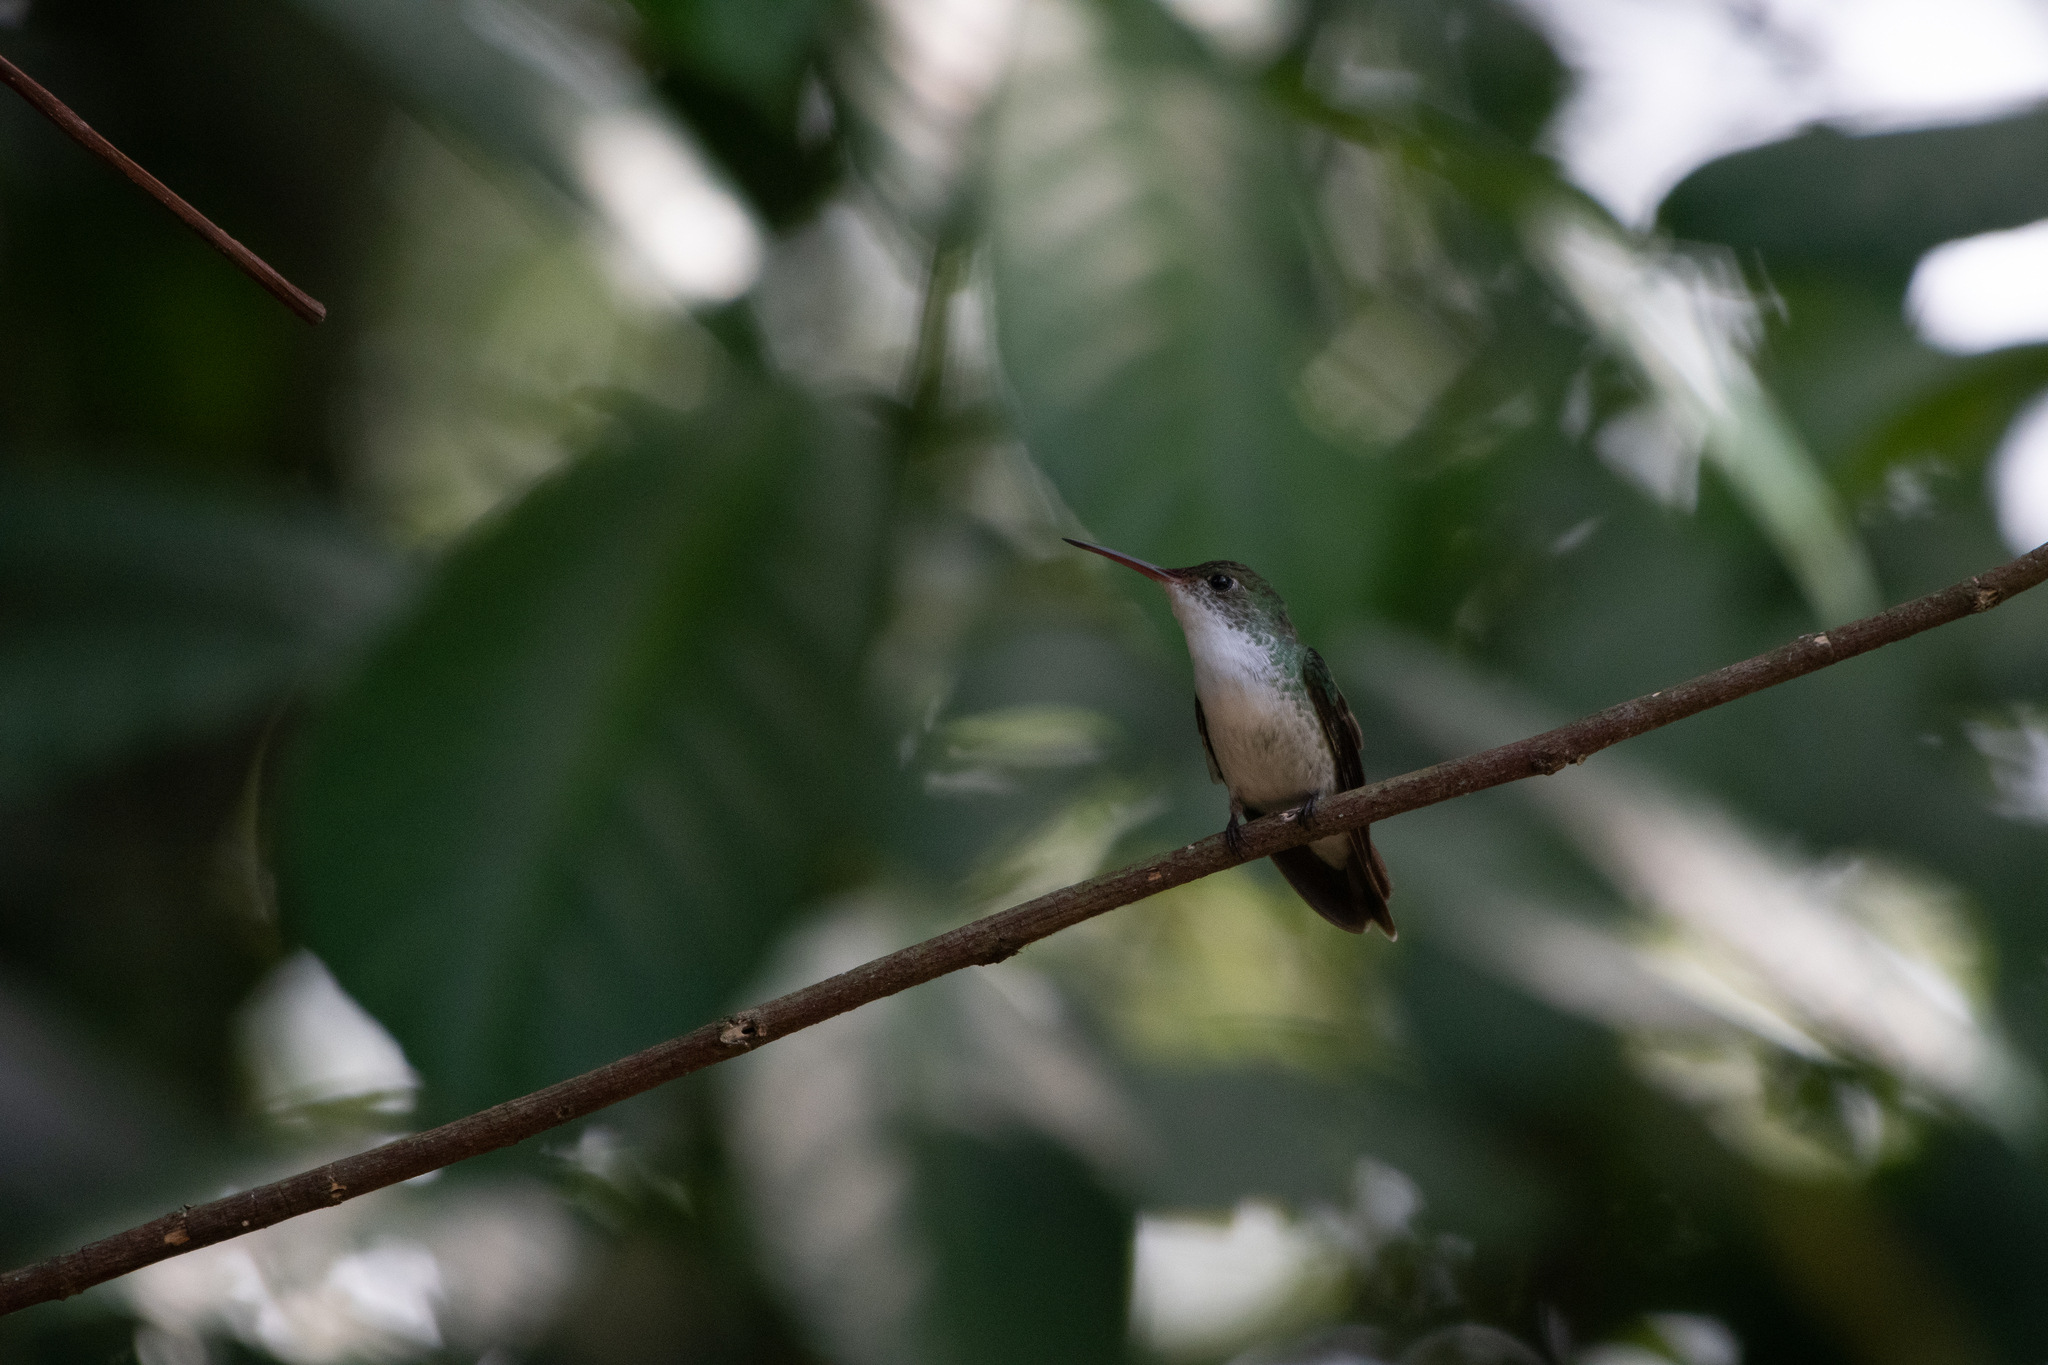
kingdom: Animalia
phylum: Chordata
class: Aves
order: Apodiformes
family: Trochilidae
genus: Chlorestes
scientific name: Chlorestes candida
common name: White-bellied emerald
